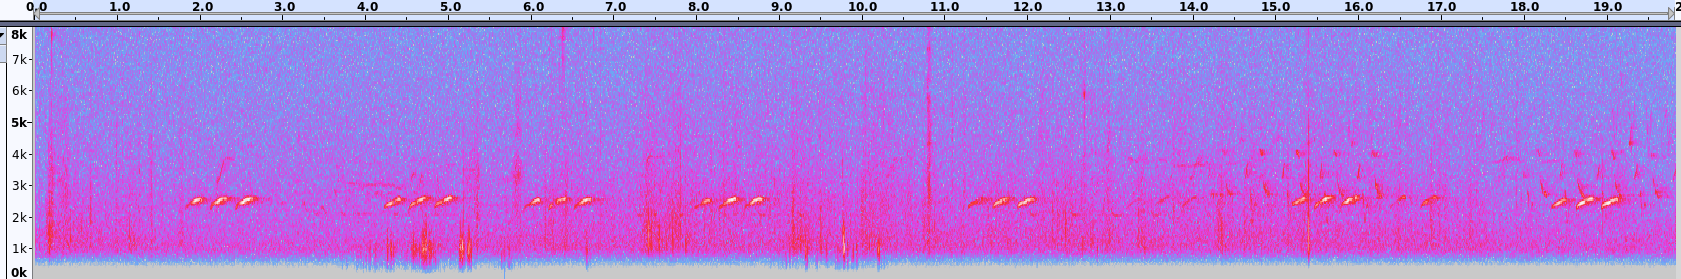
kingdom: Animalia
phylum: Chordata
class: Aves
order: Passeriformes
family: Paridae
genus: Baeolophus
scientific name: Baeolophus bicolor
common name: Tufted titmouse
